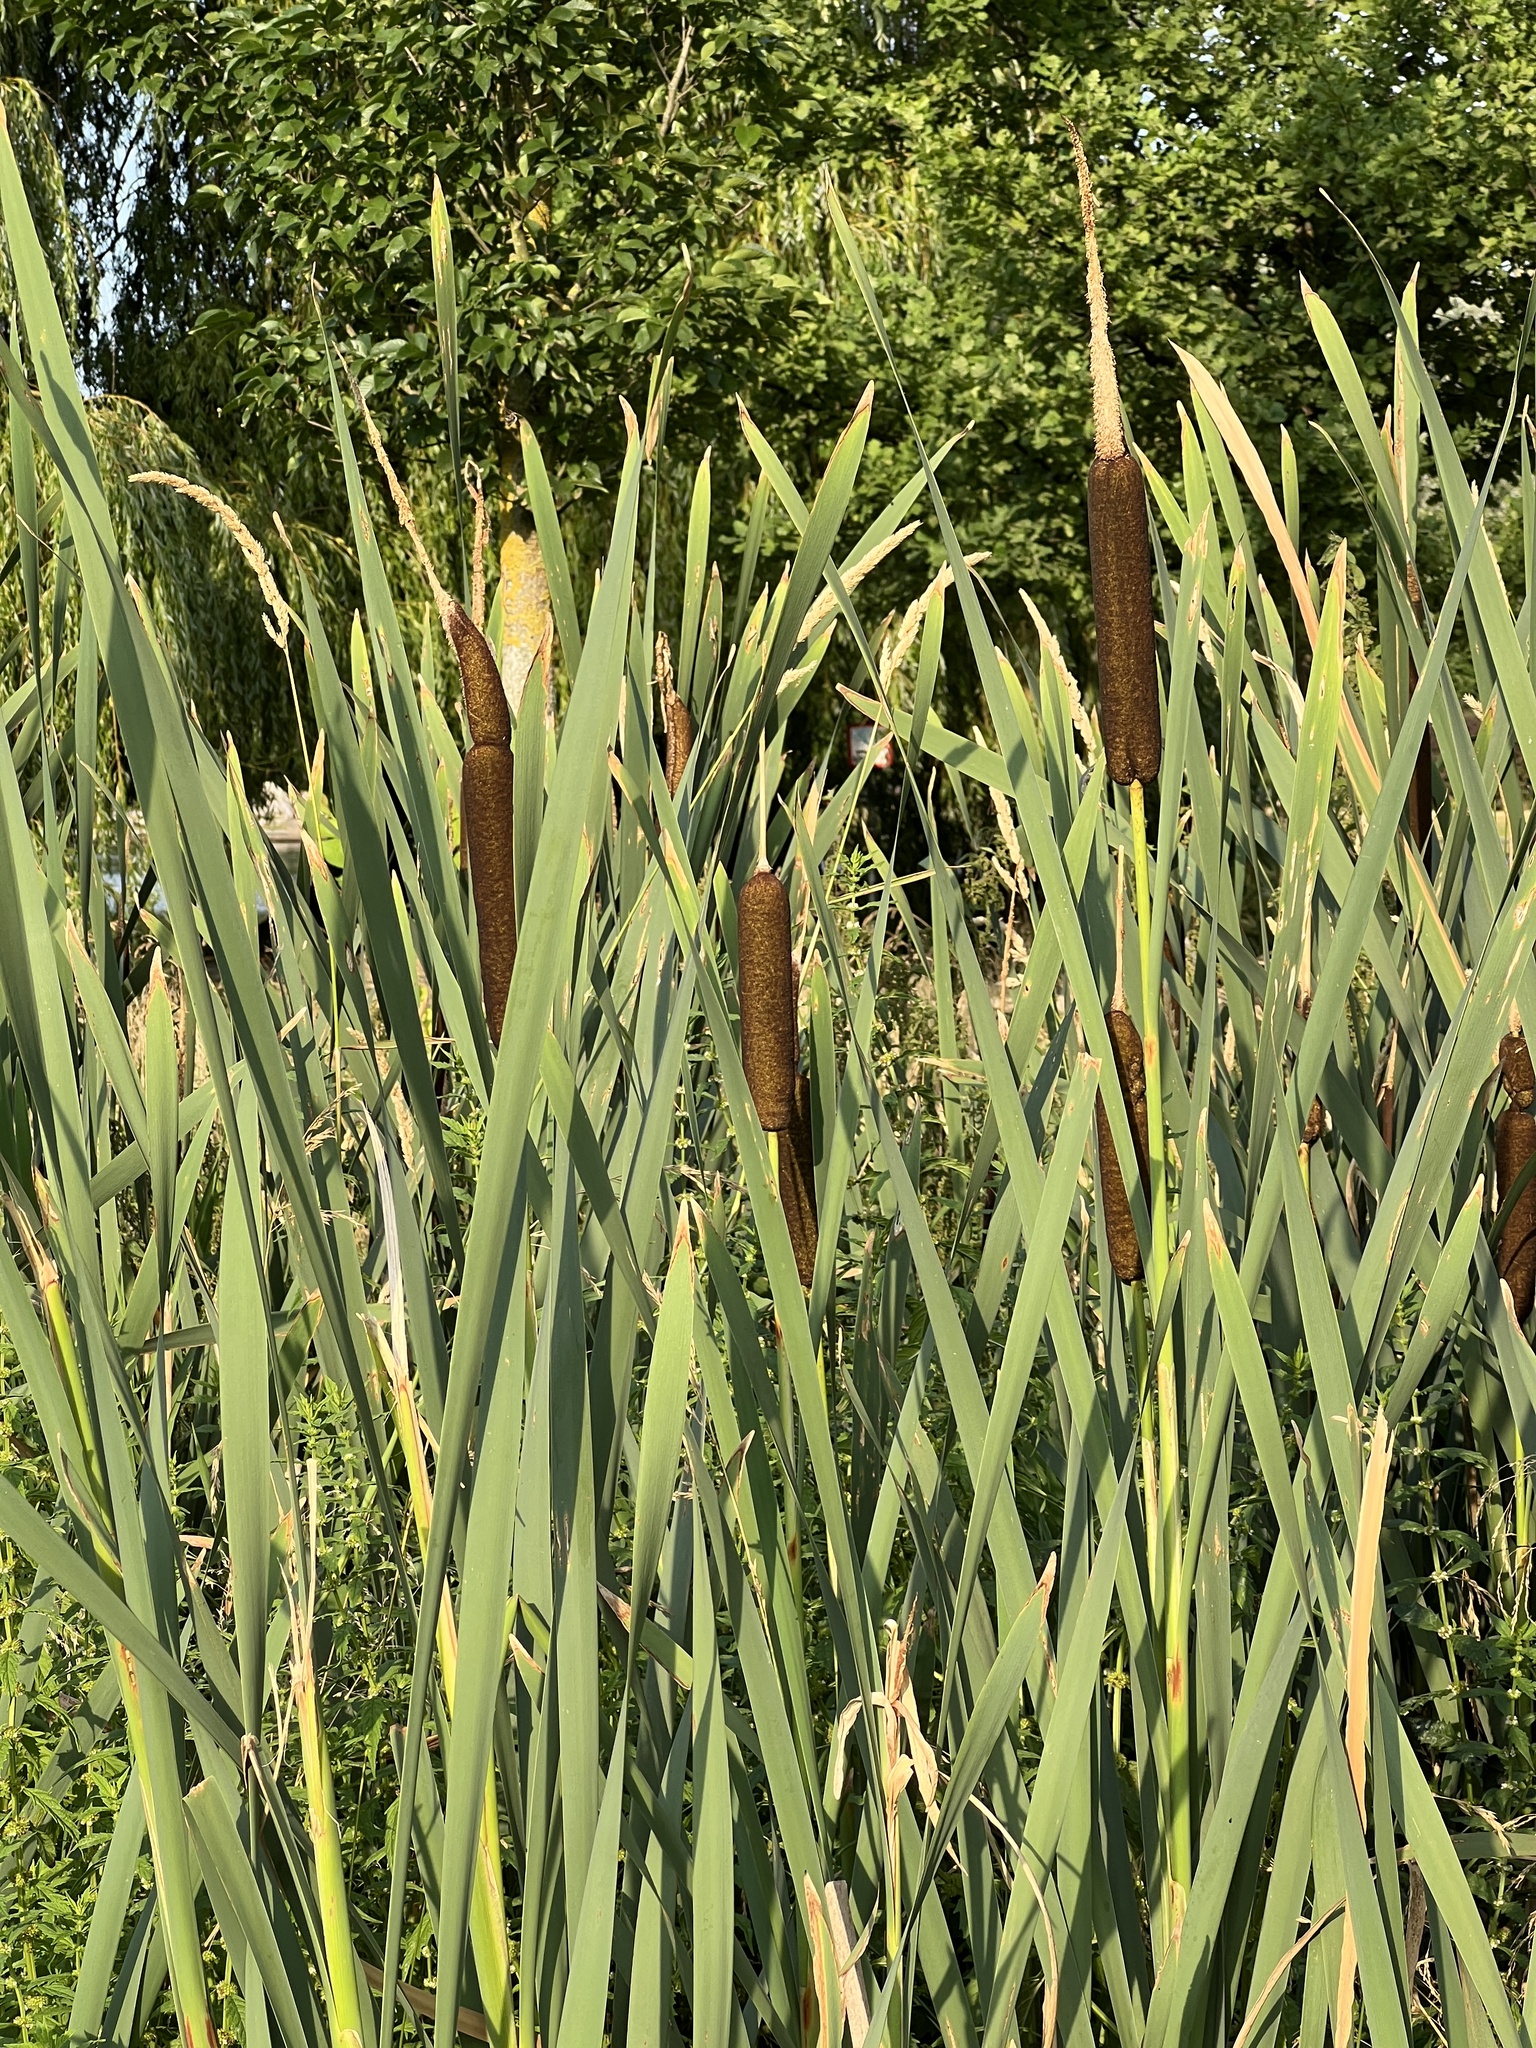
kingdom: Plantae
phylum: Tracheophyta
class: Liliopsida
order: Poales
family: Typhaceae
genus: Typha
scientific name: Typha latifolia
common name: Broadleaf cattail
